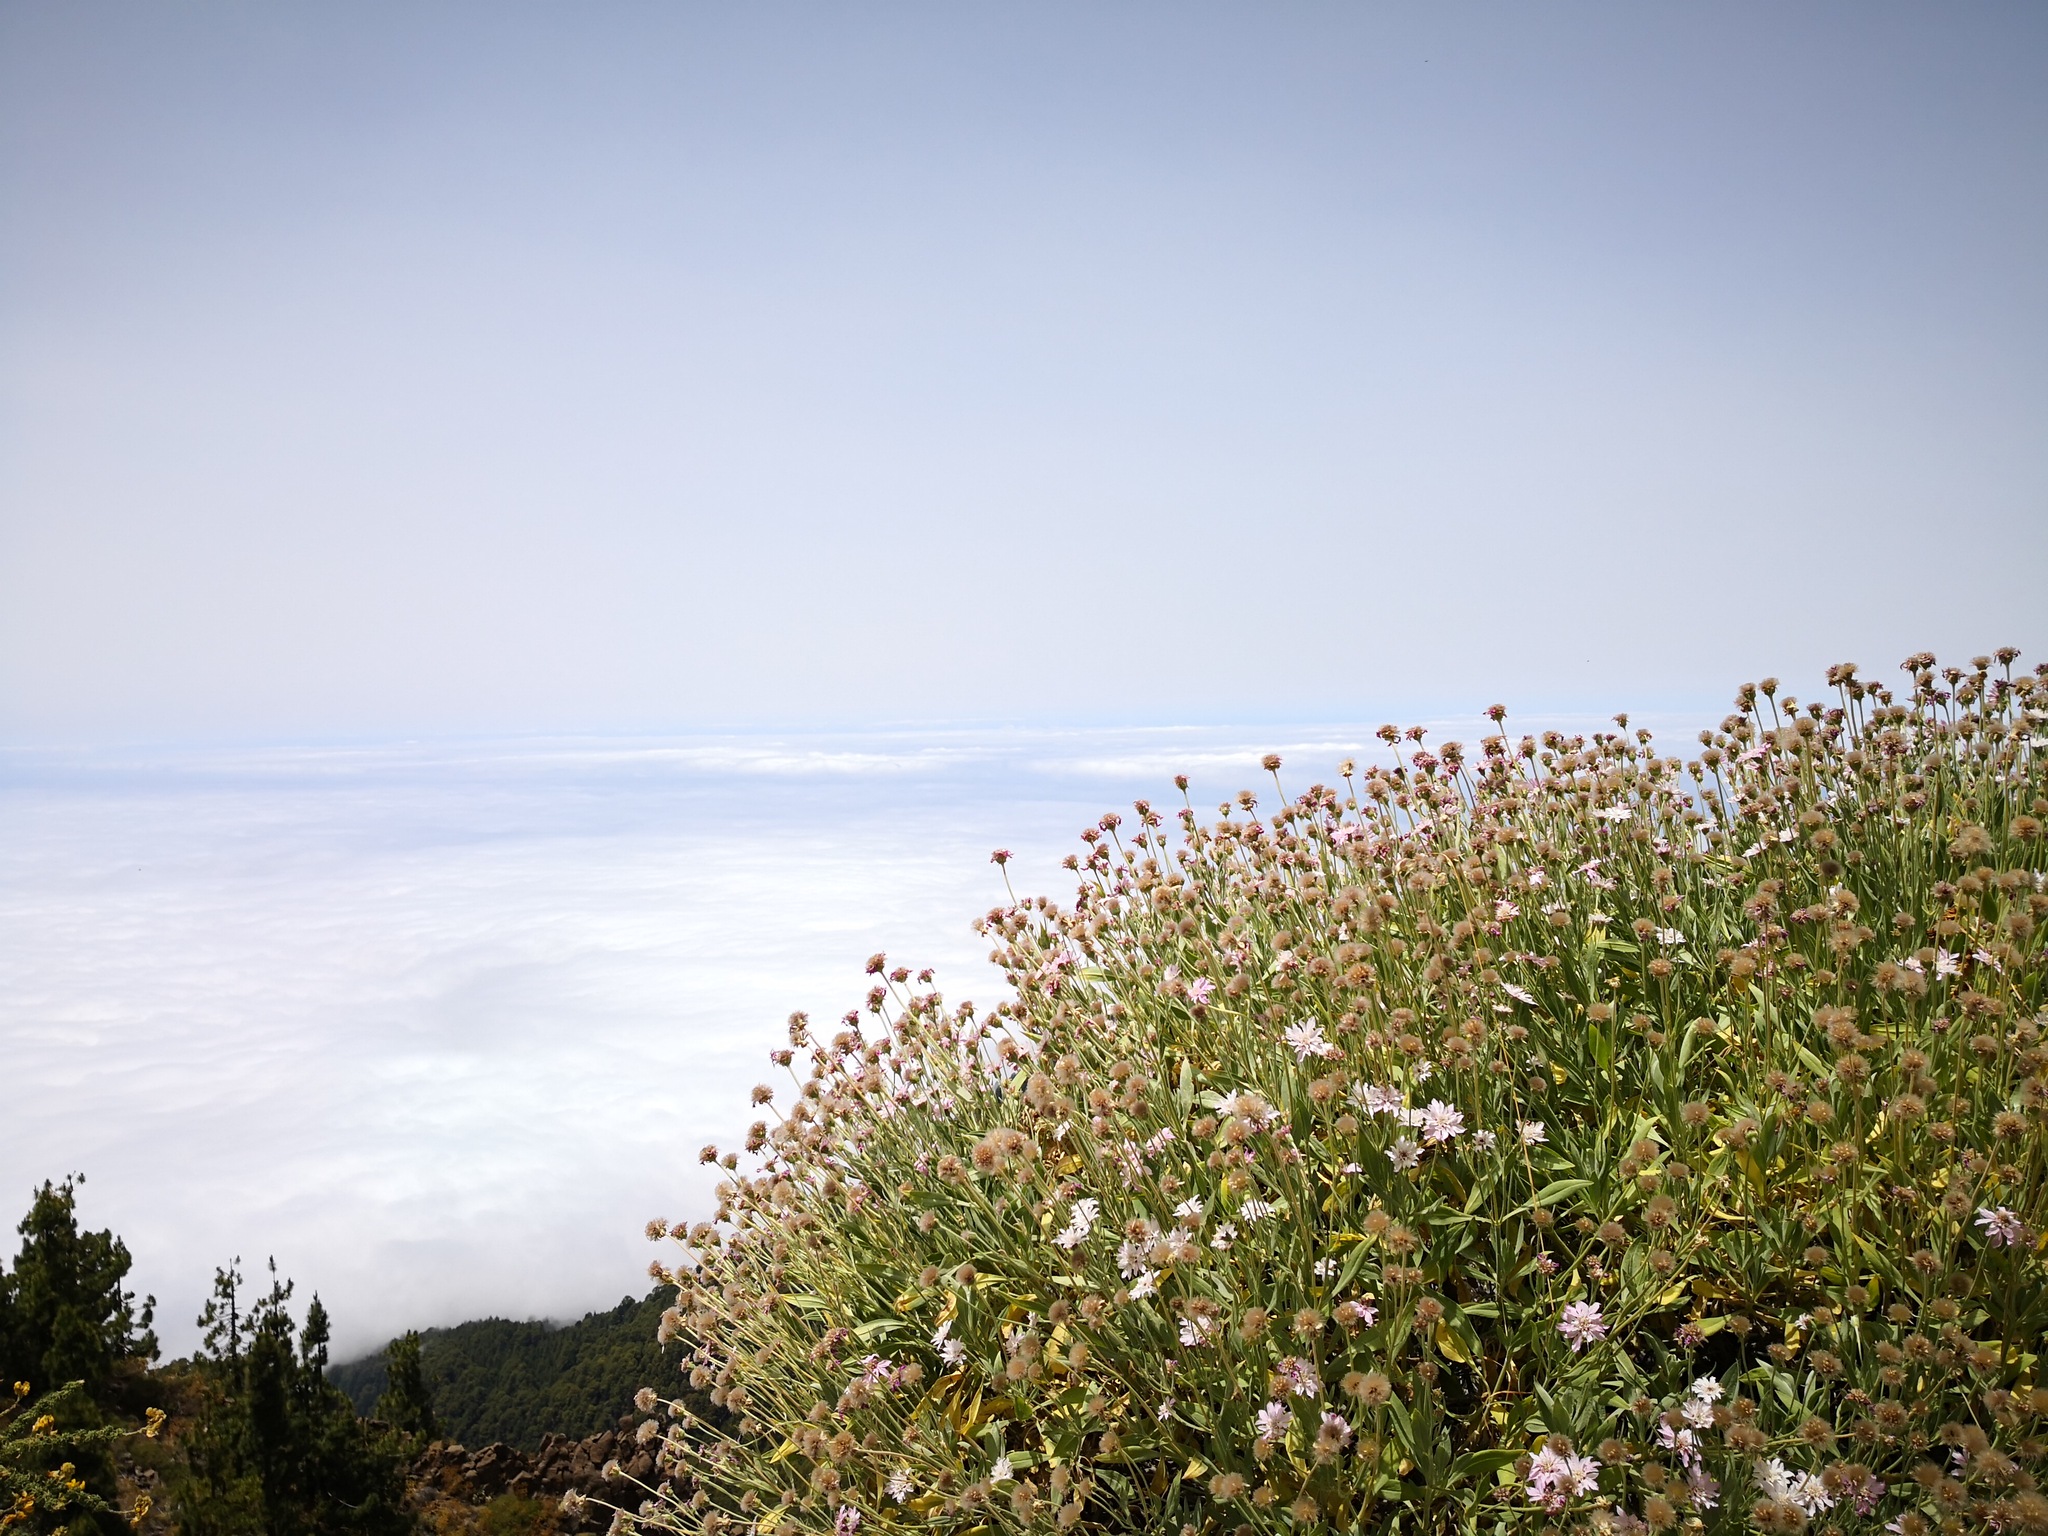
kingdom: Plantae
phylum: Tracheophyta
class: Magnoliopsida
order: Dipsacales
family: Caprifoliaceae
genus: Pterocephalus
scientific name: Pterocephalus lasiospermus
